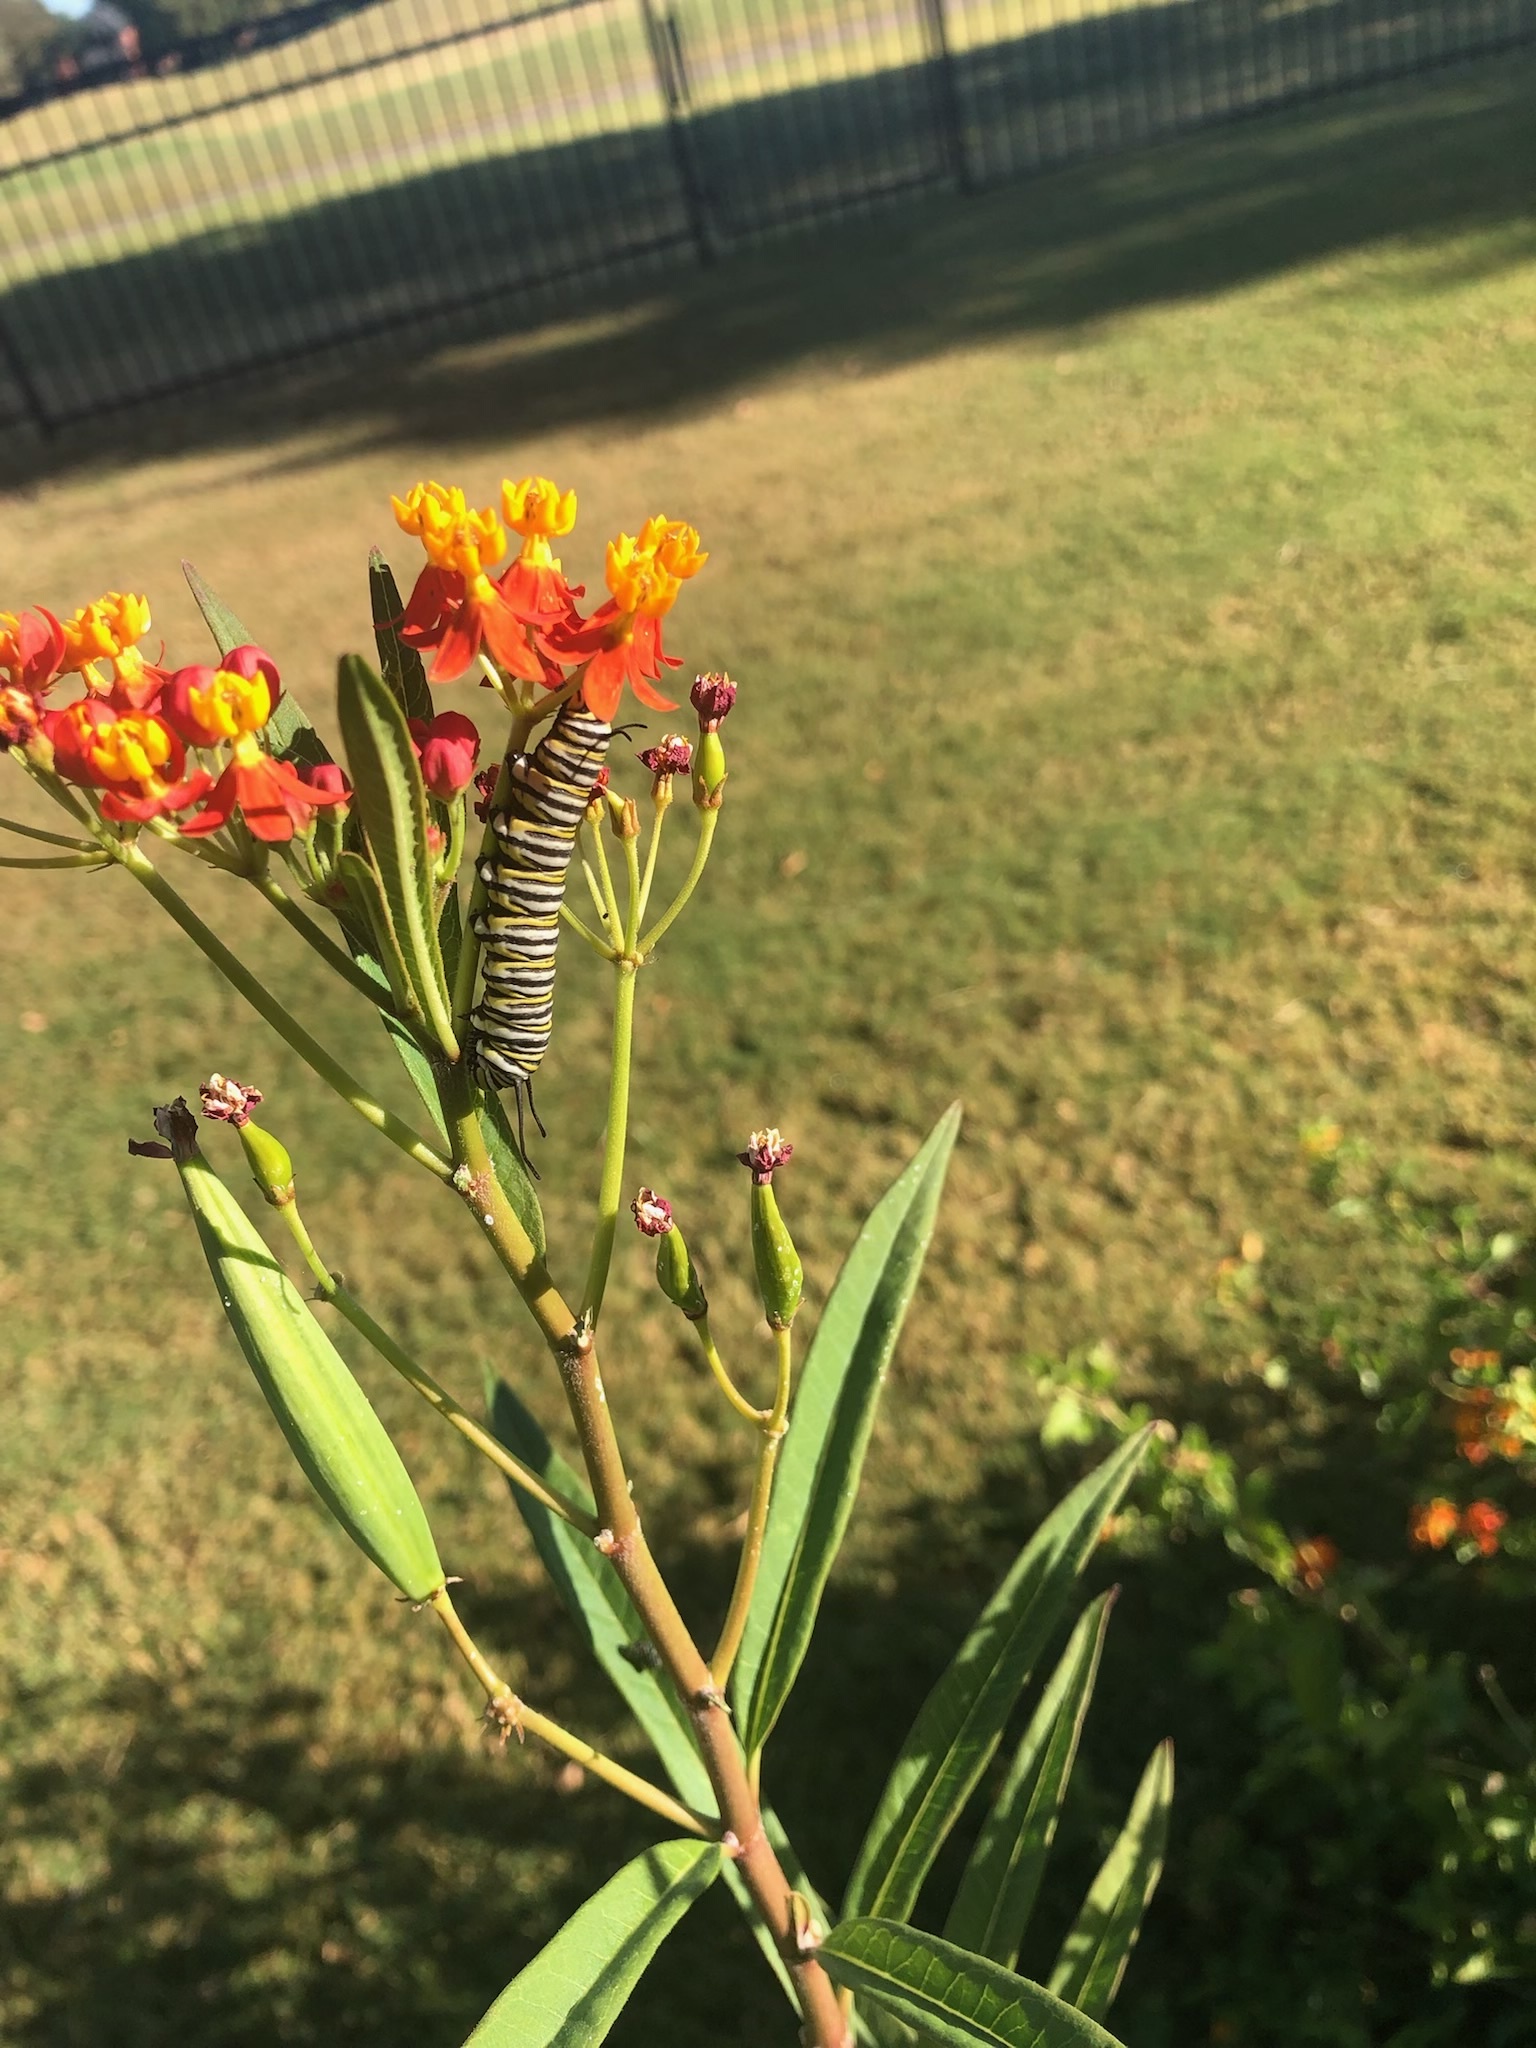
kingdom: Animalia
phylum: Arthropoda
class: Insecta
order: Lepidoptera
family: Nymphalidae
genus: Danaus
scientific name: Danaus plexippus
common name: Monarch
